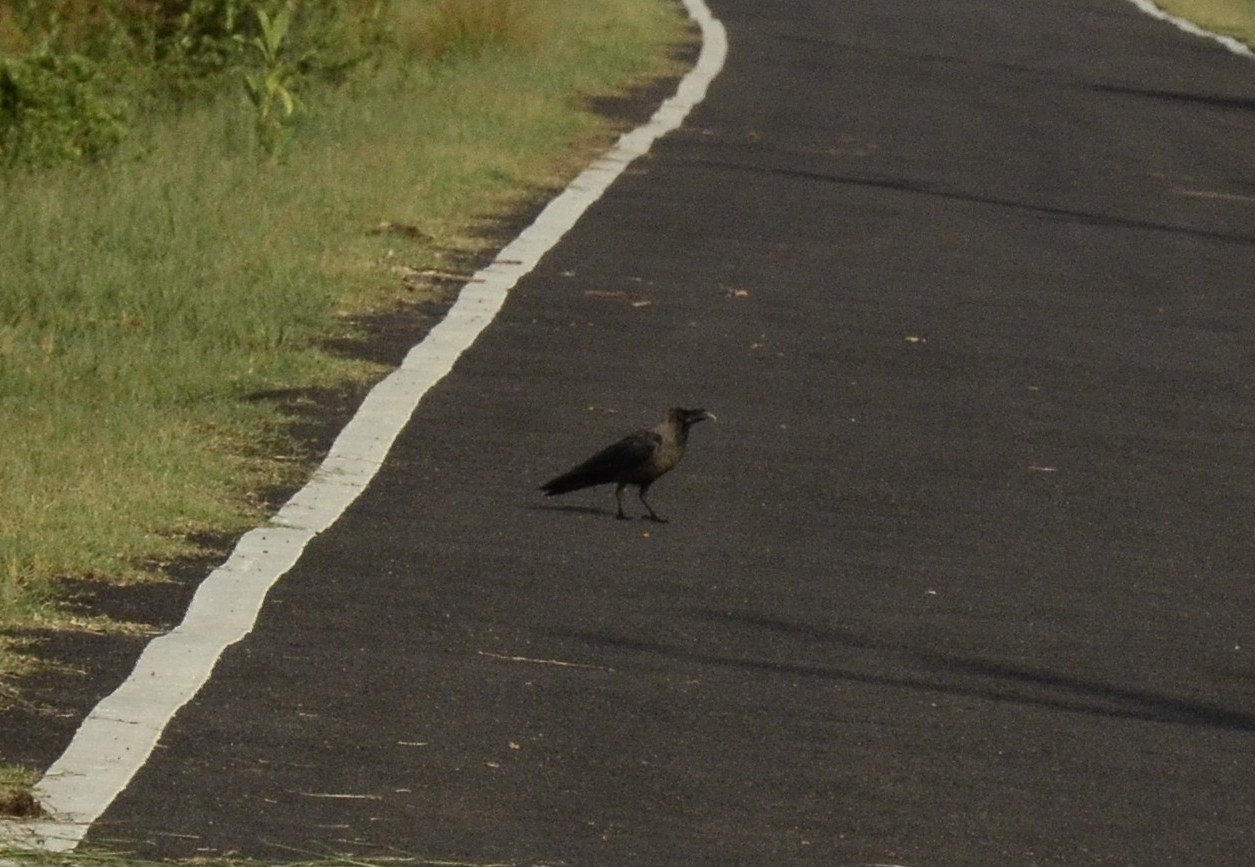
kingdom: Animalia
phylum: Chordata
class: Aves
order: Passeriformes
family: Corvidae
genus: Corvus
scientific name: Corvus splendens
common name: House crow
